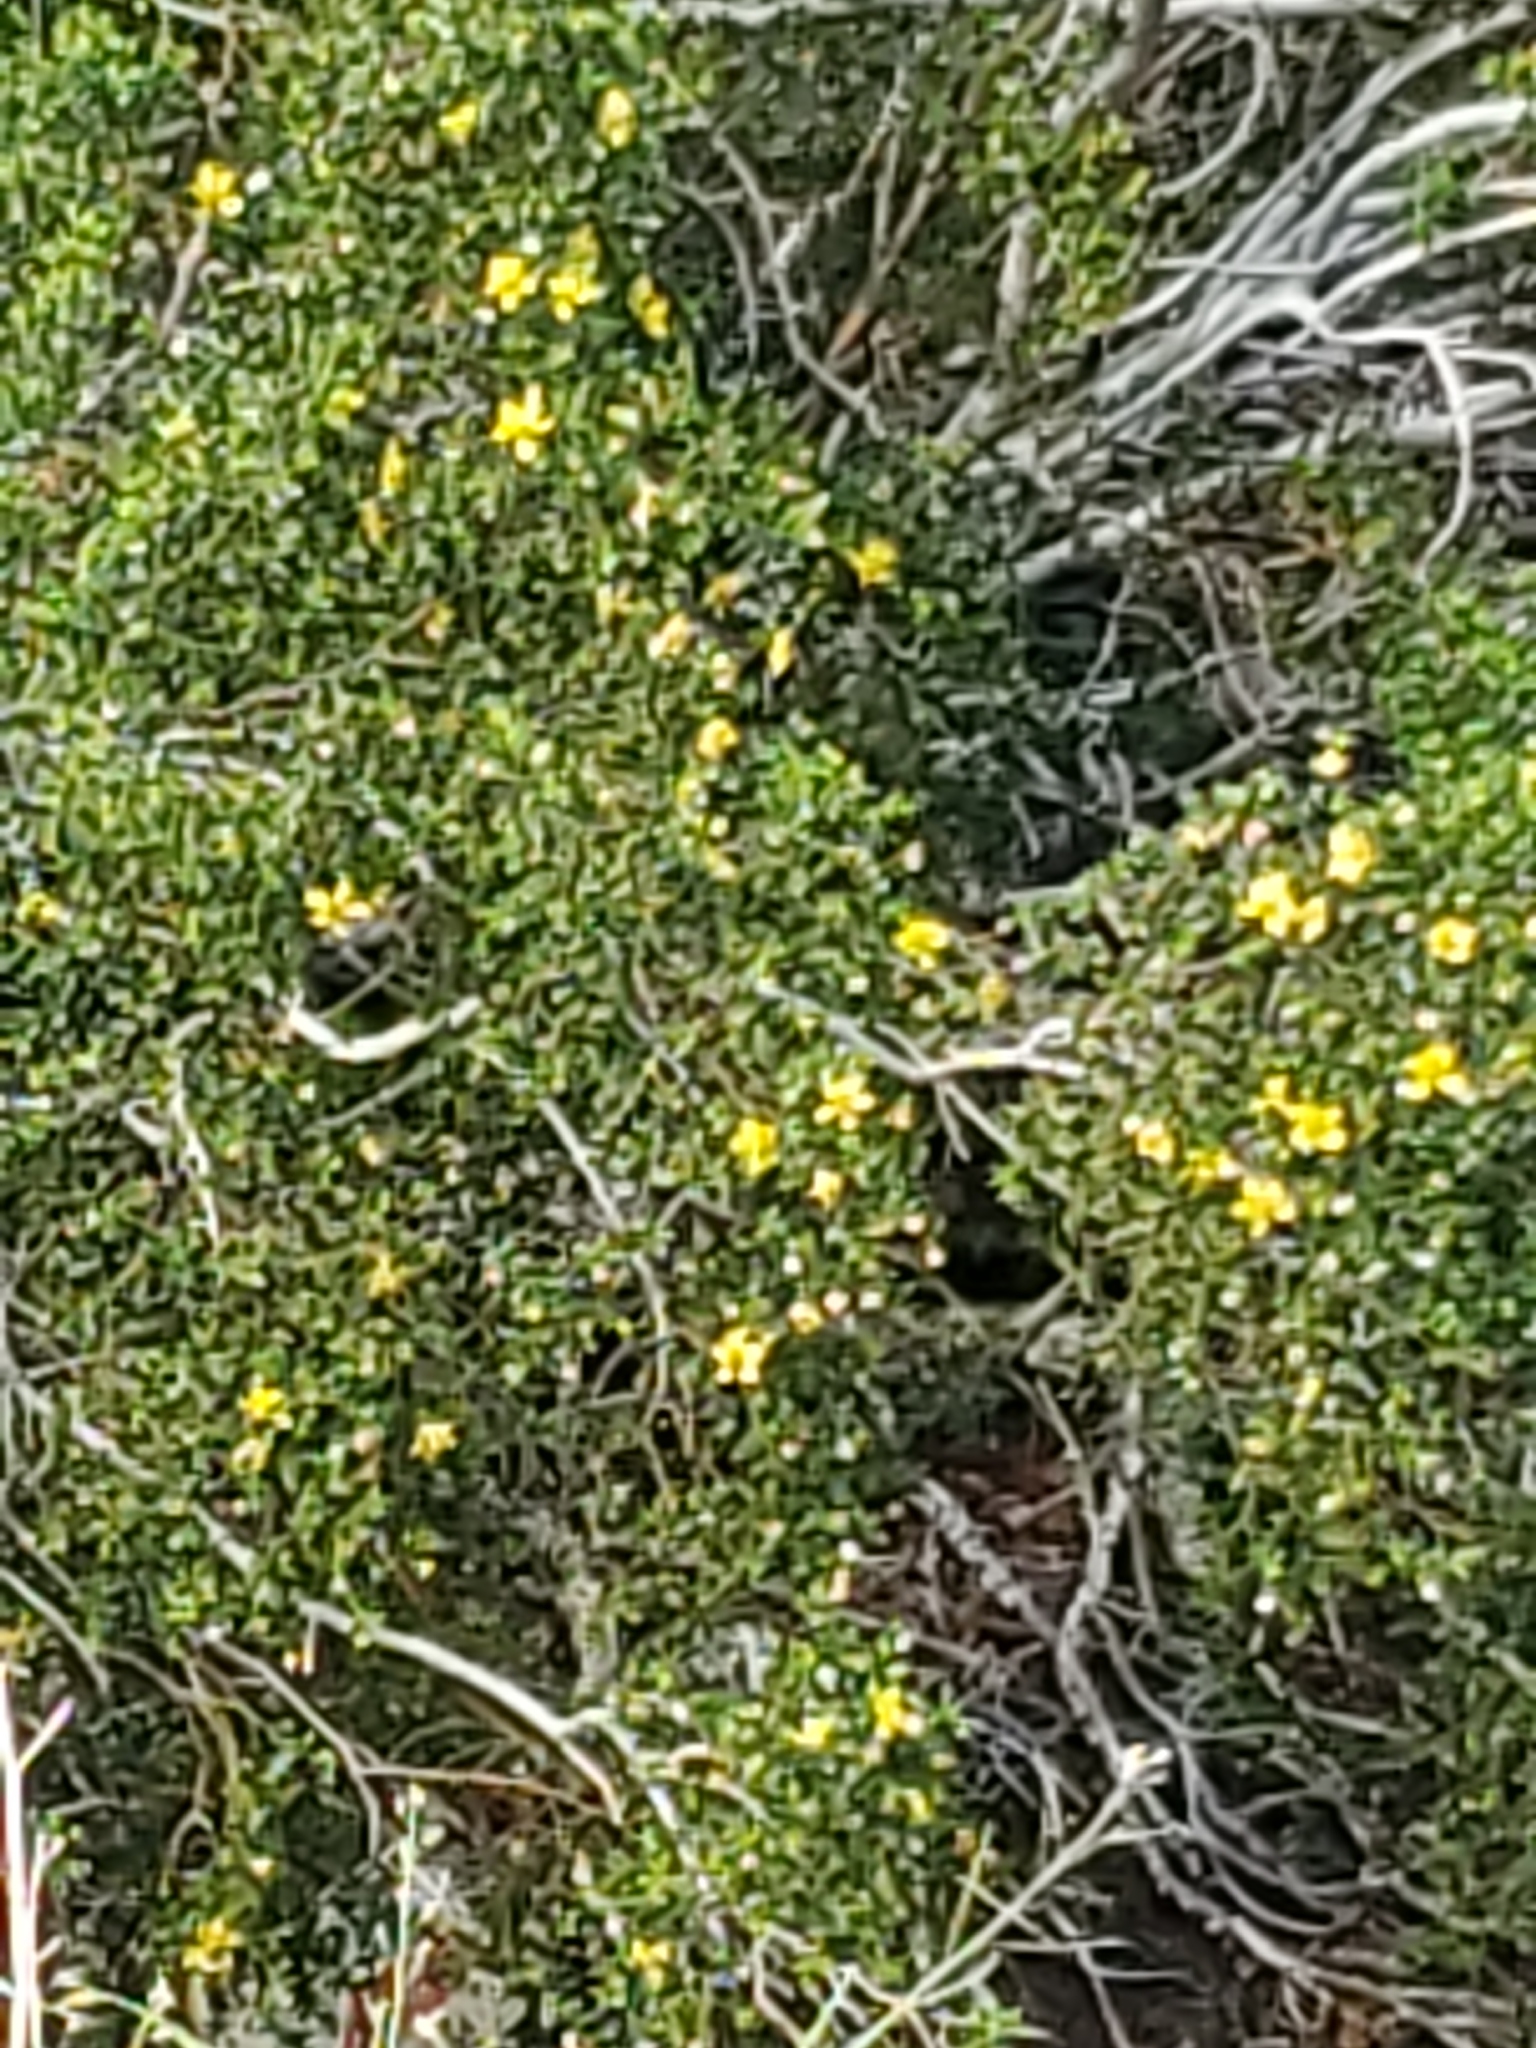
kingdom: Plantae
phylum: Tracheophyta
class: Magnoliopsida
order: Zygophyllales
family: Zygophyllaceae
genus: Larrea
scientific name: Larrea tridentata
